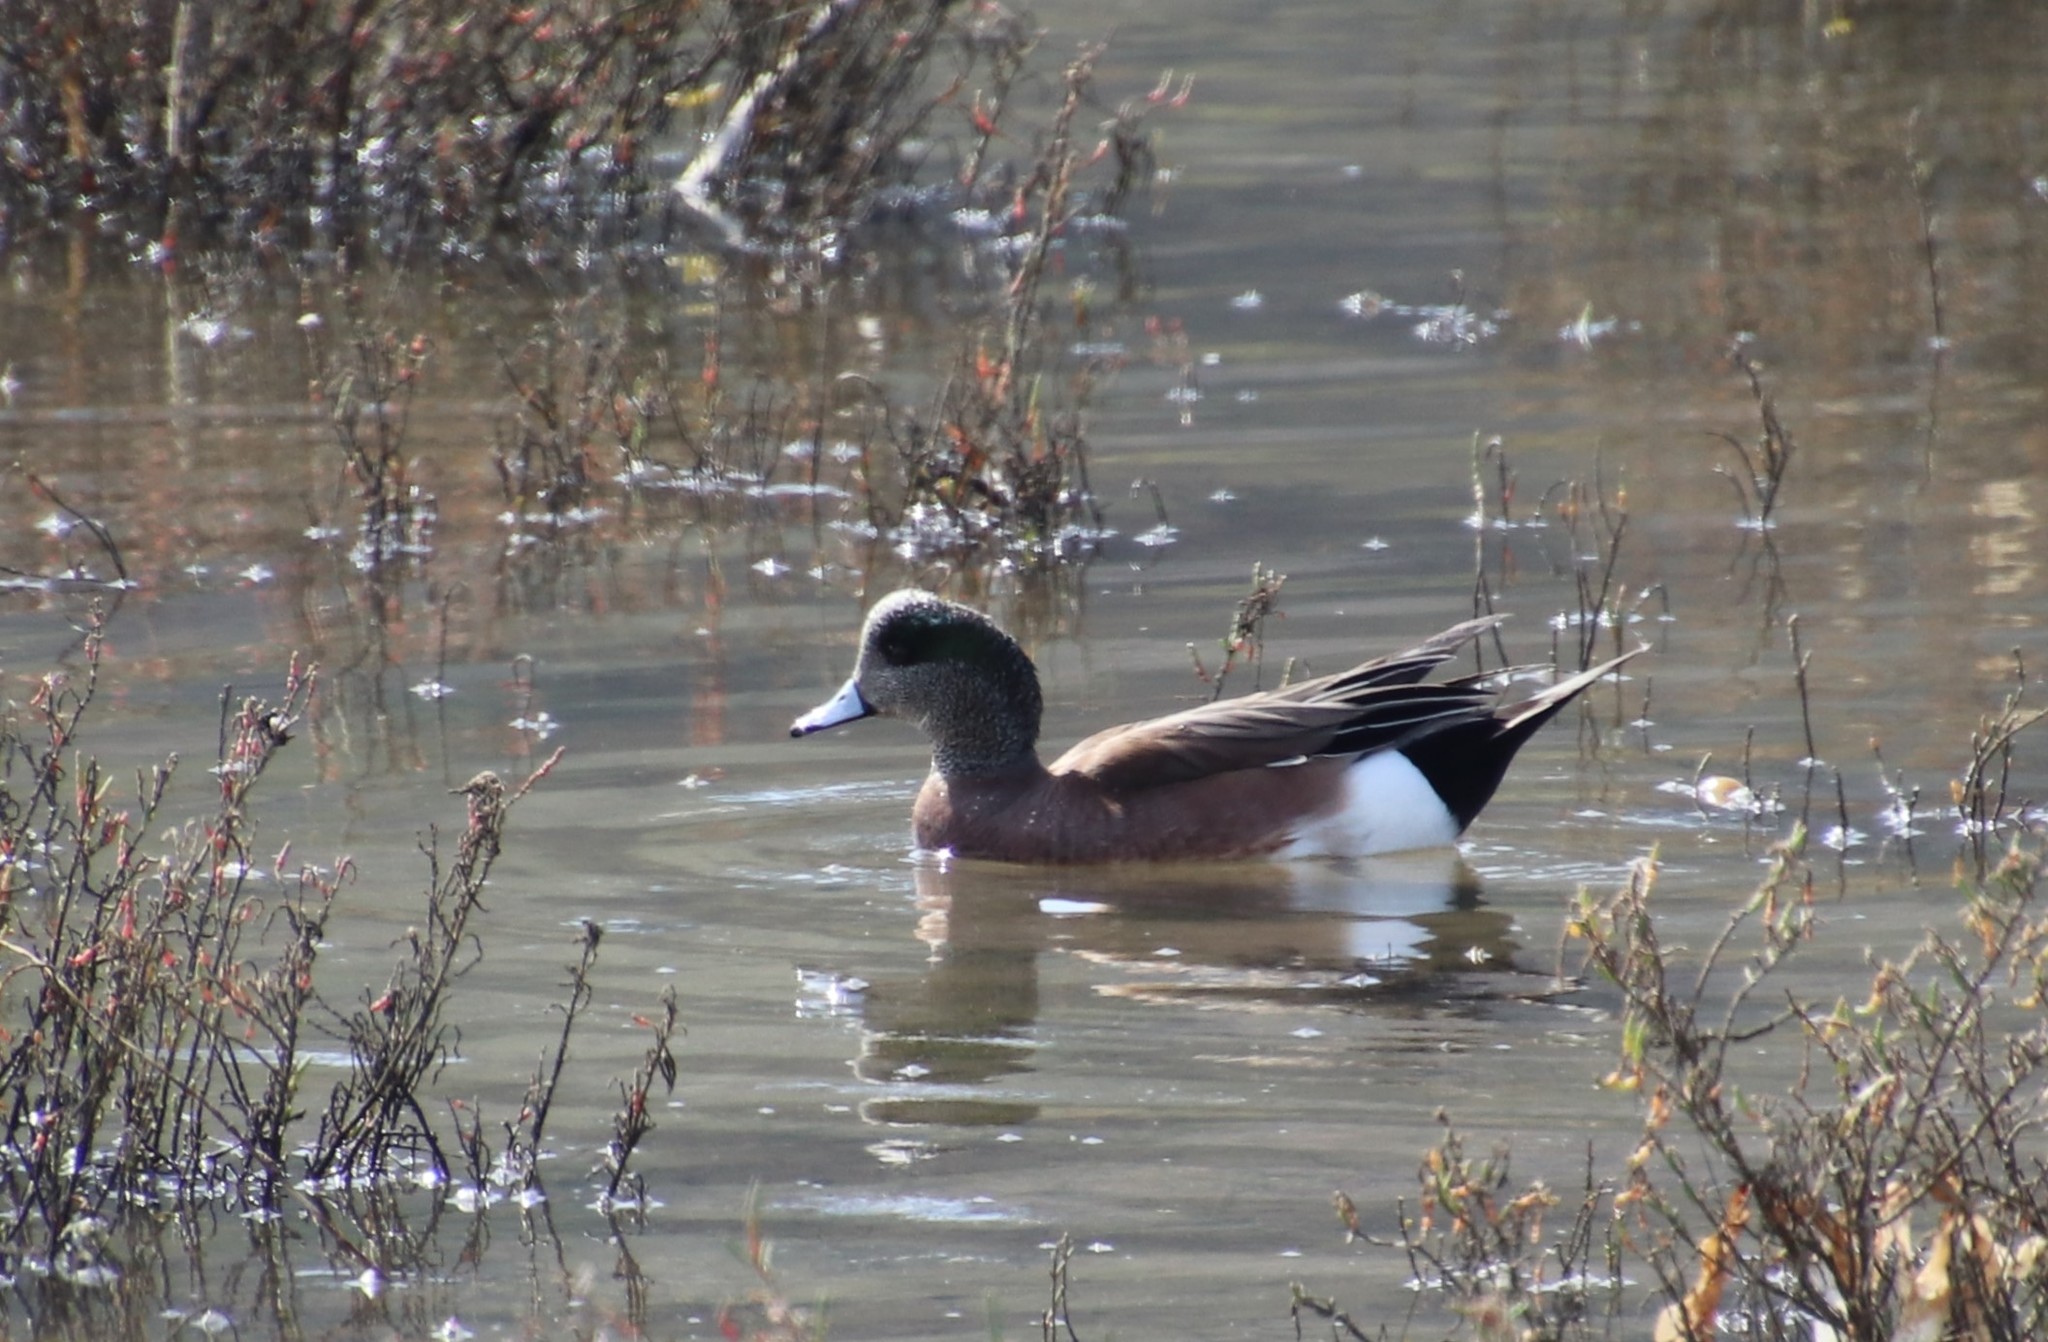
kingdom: Animalia
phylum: Chordata
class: Aves
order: Anseriformes
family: Anatidae
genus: Mareca
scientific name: Mareca americana
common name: American wigeon
